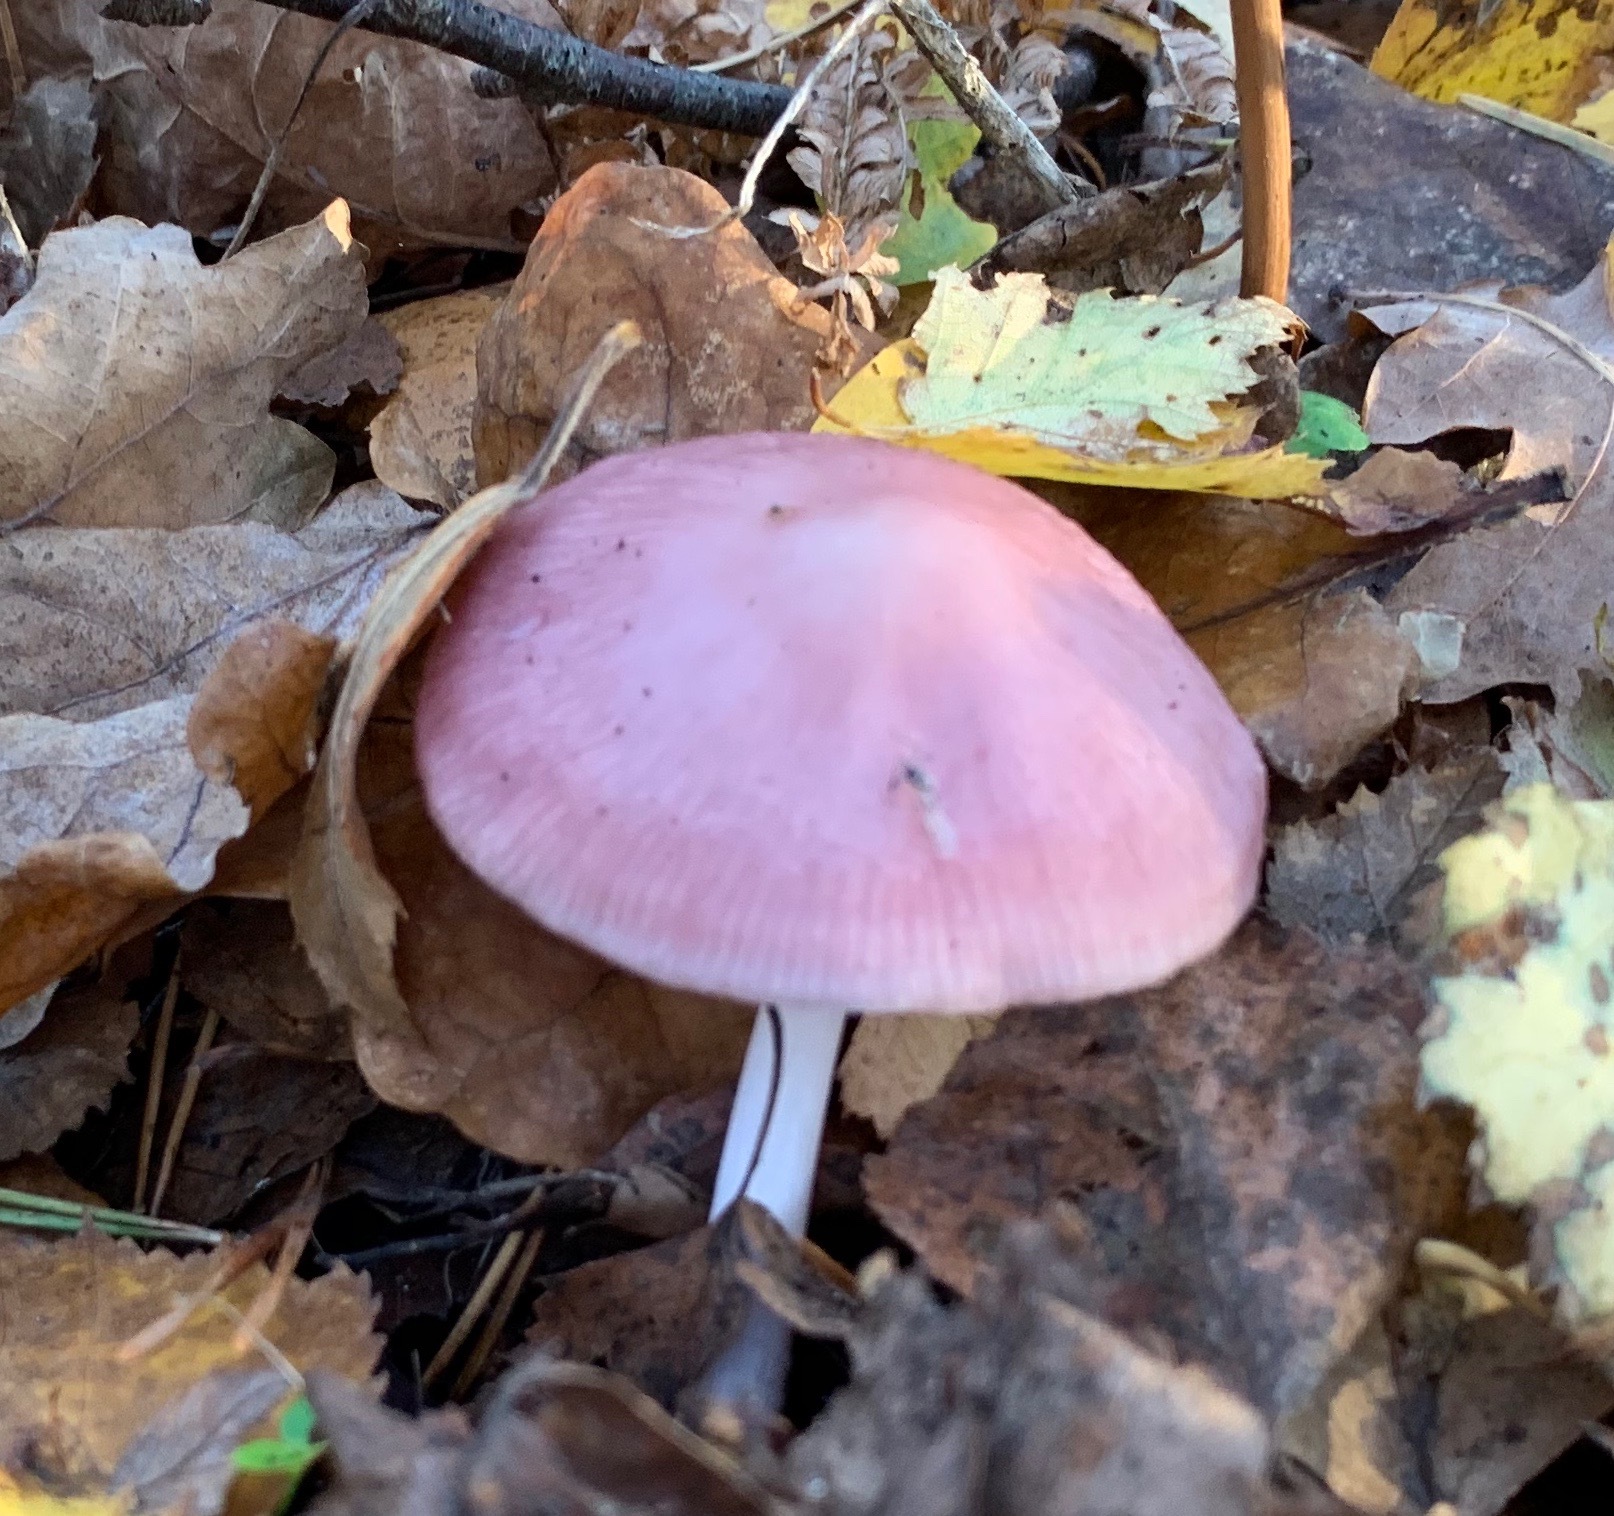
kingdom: Fungi
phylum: Basidiomycota
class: Agaricomycetes
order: Agaricales
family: Mycenaceae
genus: Mycena
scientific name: Mycena rosea
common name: Rosy bonnet
